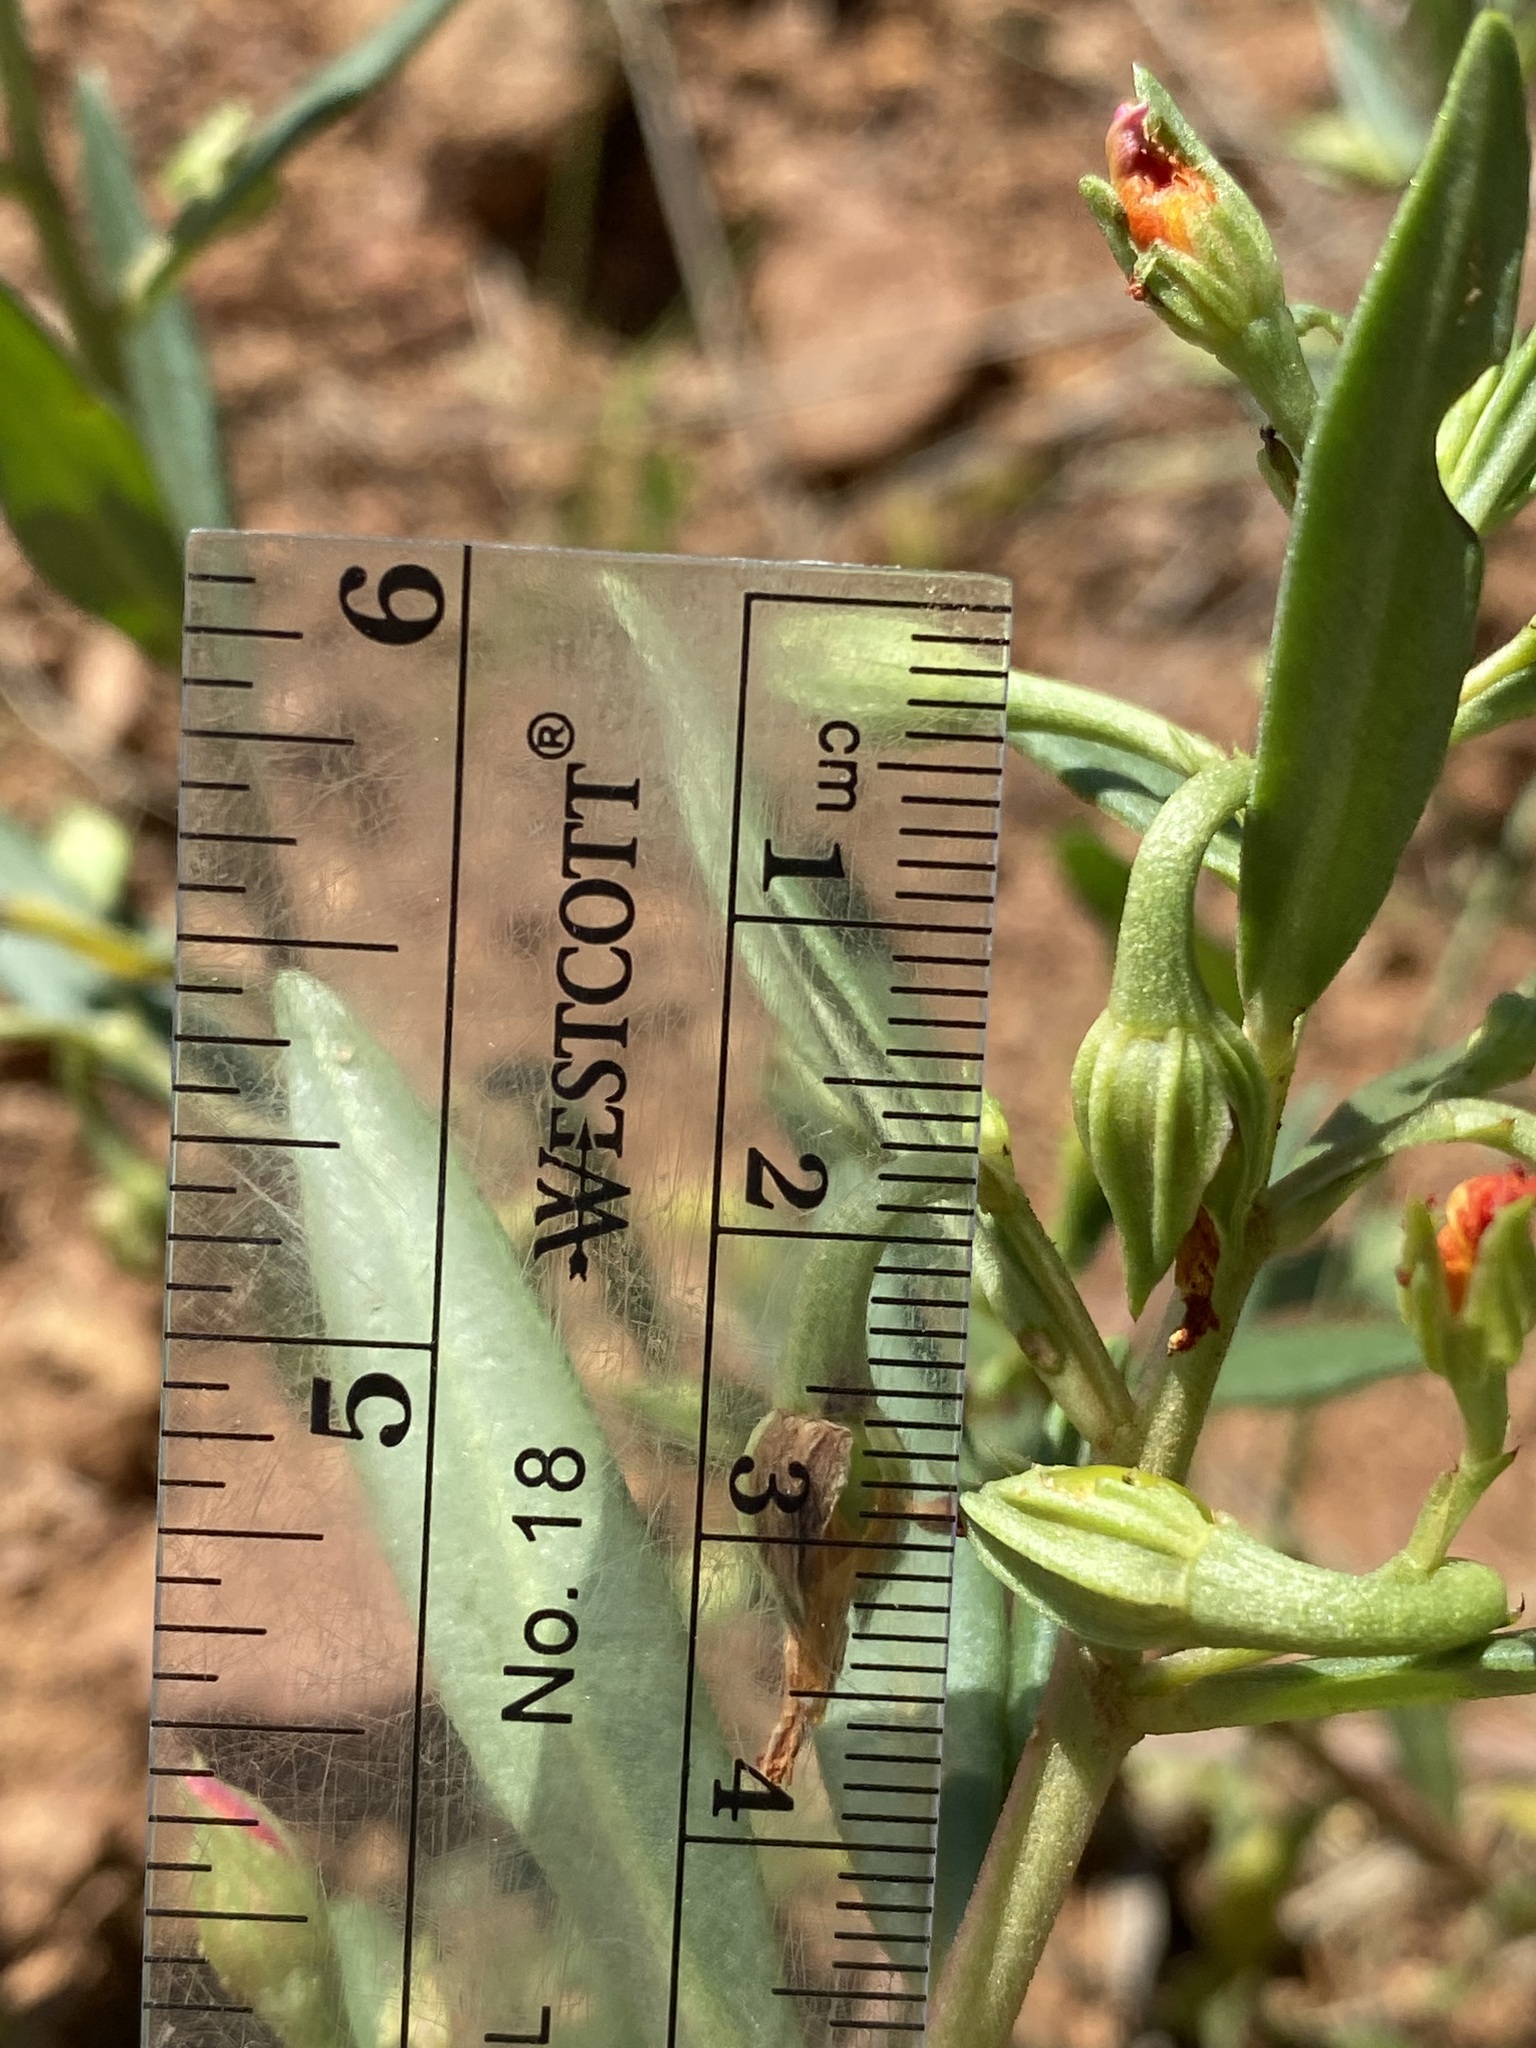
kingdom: Plantae
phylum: Tracheophyta
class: Magnoliopsida
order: Caryophyllales
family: Montiaceae
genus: Phemeranthus
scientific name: Phemeranthus aurantiacus
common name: Orange fameflower
